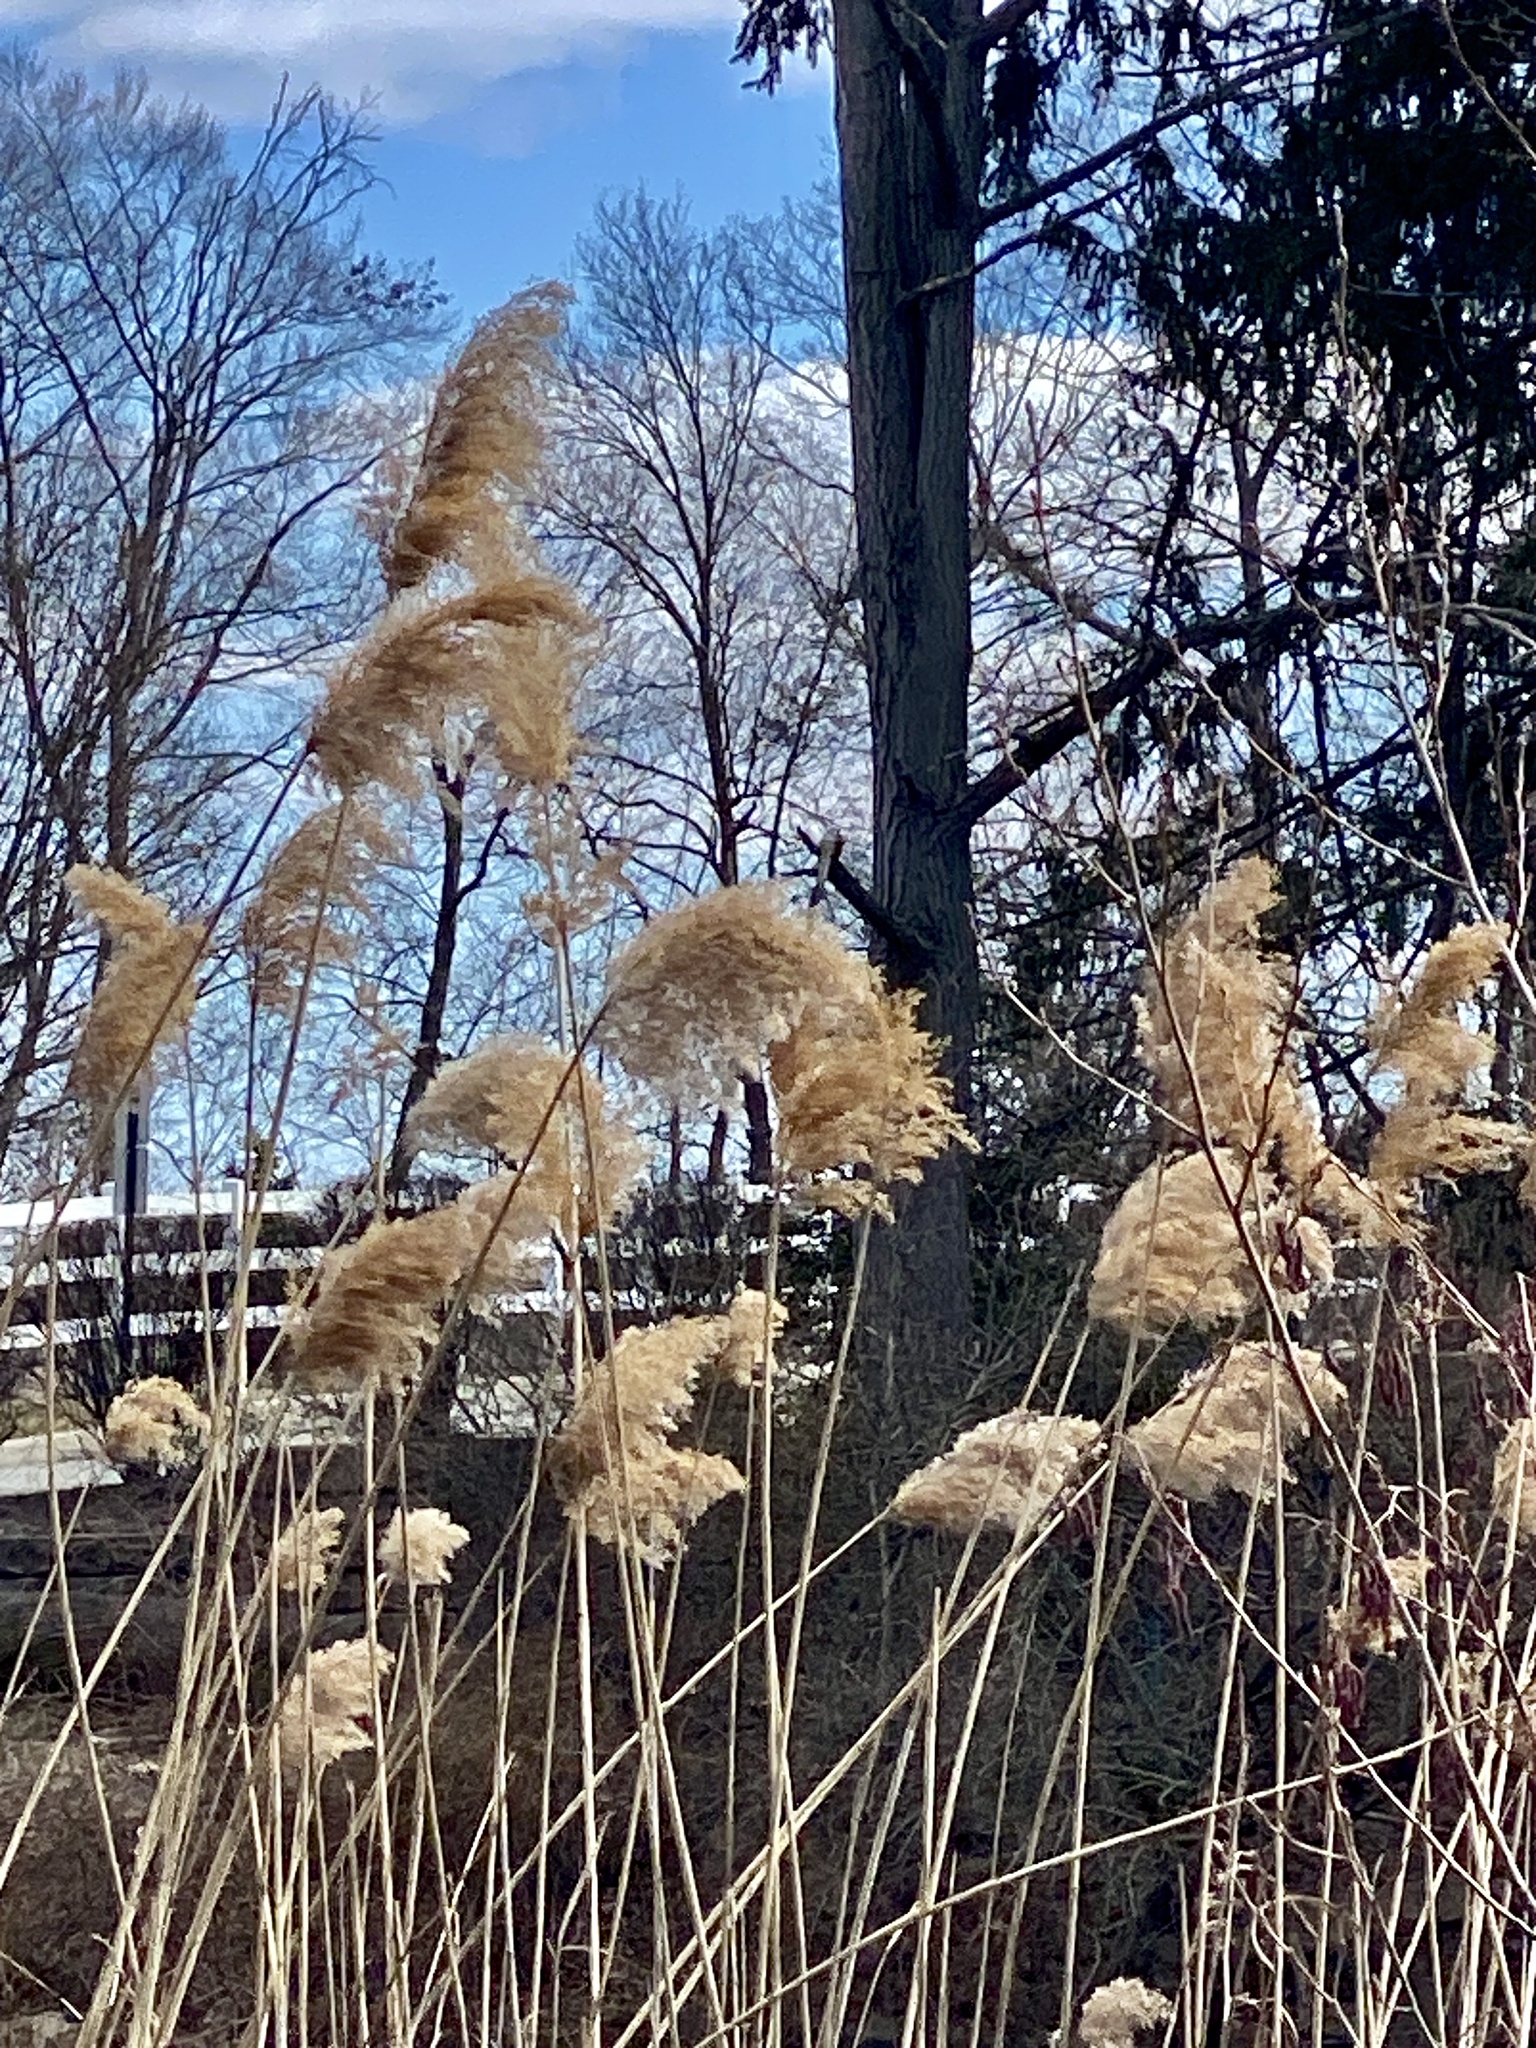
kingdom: Plantae
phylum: Tracheophyta
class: Liliopsida
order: Poales
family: Poaceae
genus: Phragmites
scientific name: Phragmites australis
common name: Common reed
